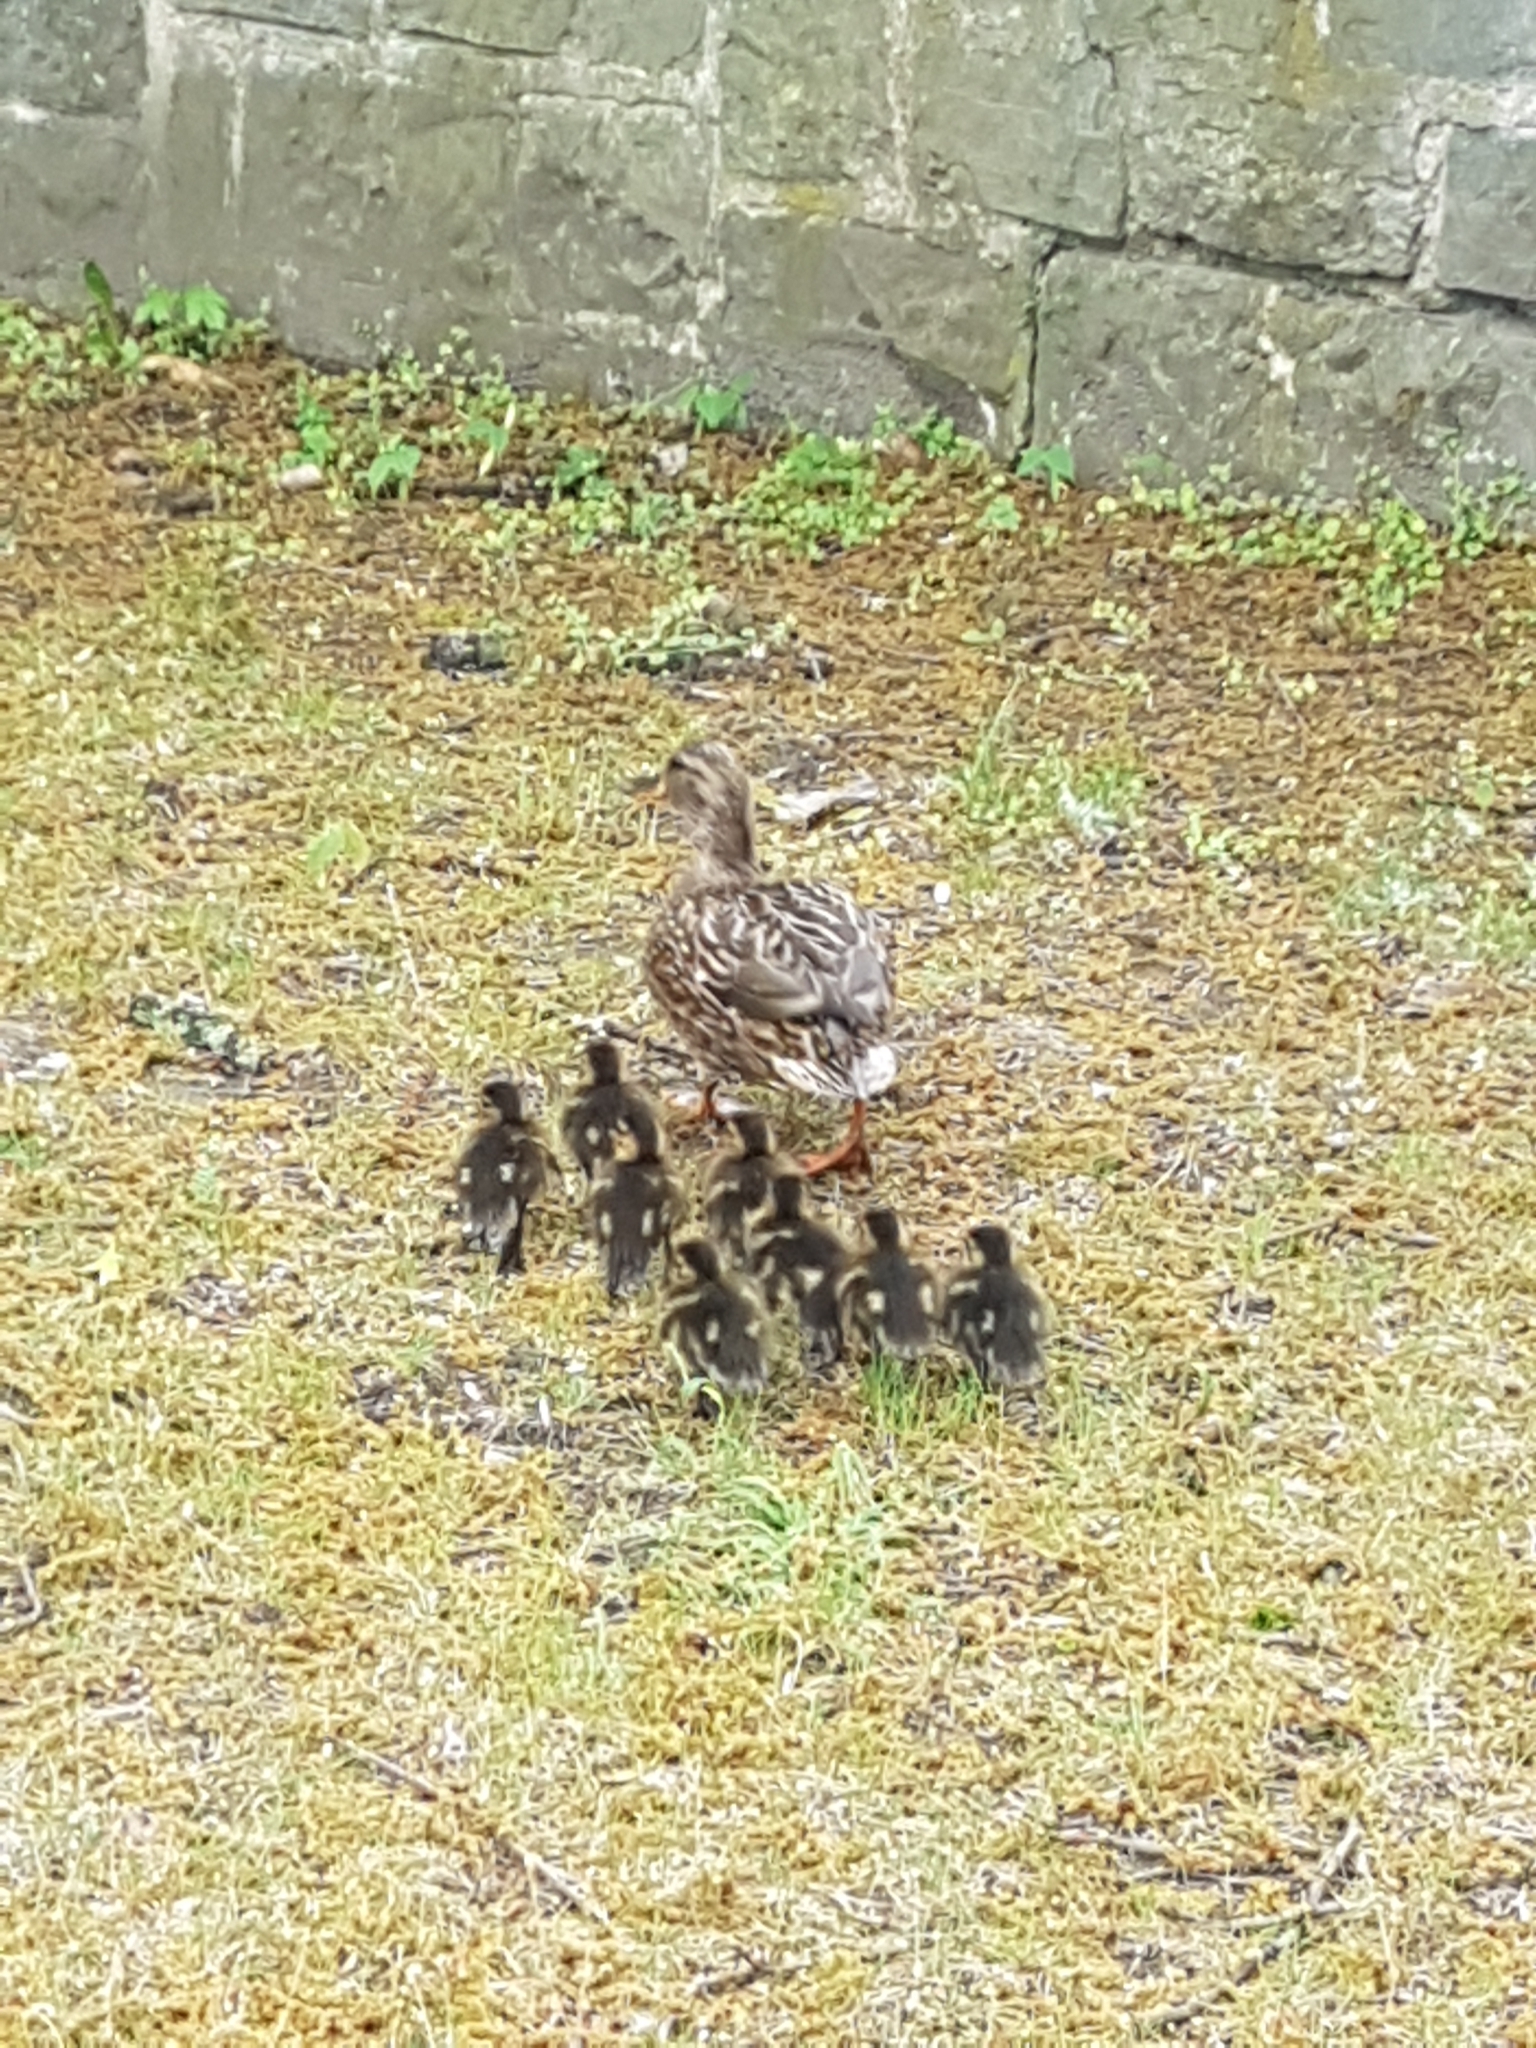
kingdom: Animalia
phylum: Chordata
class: Aves
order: Anseriformes
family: Anatidae
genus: Anas
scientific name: Anas platyrhynchos
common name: Mallard
